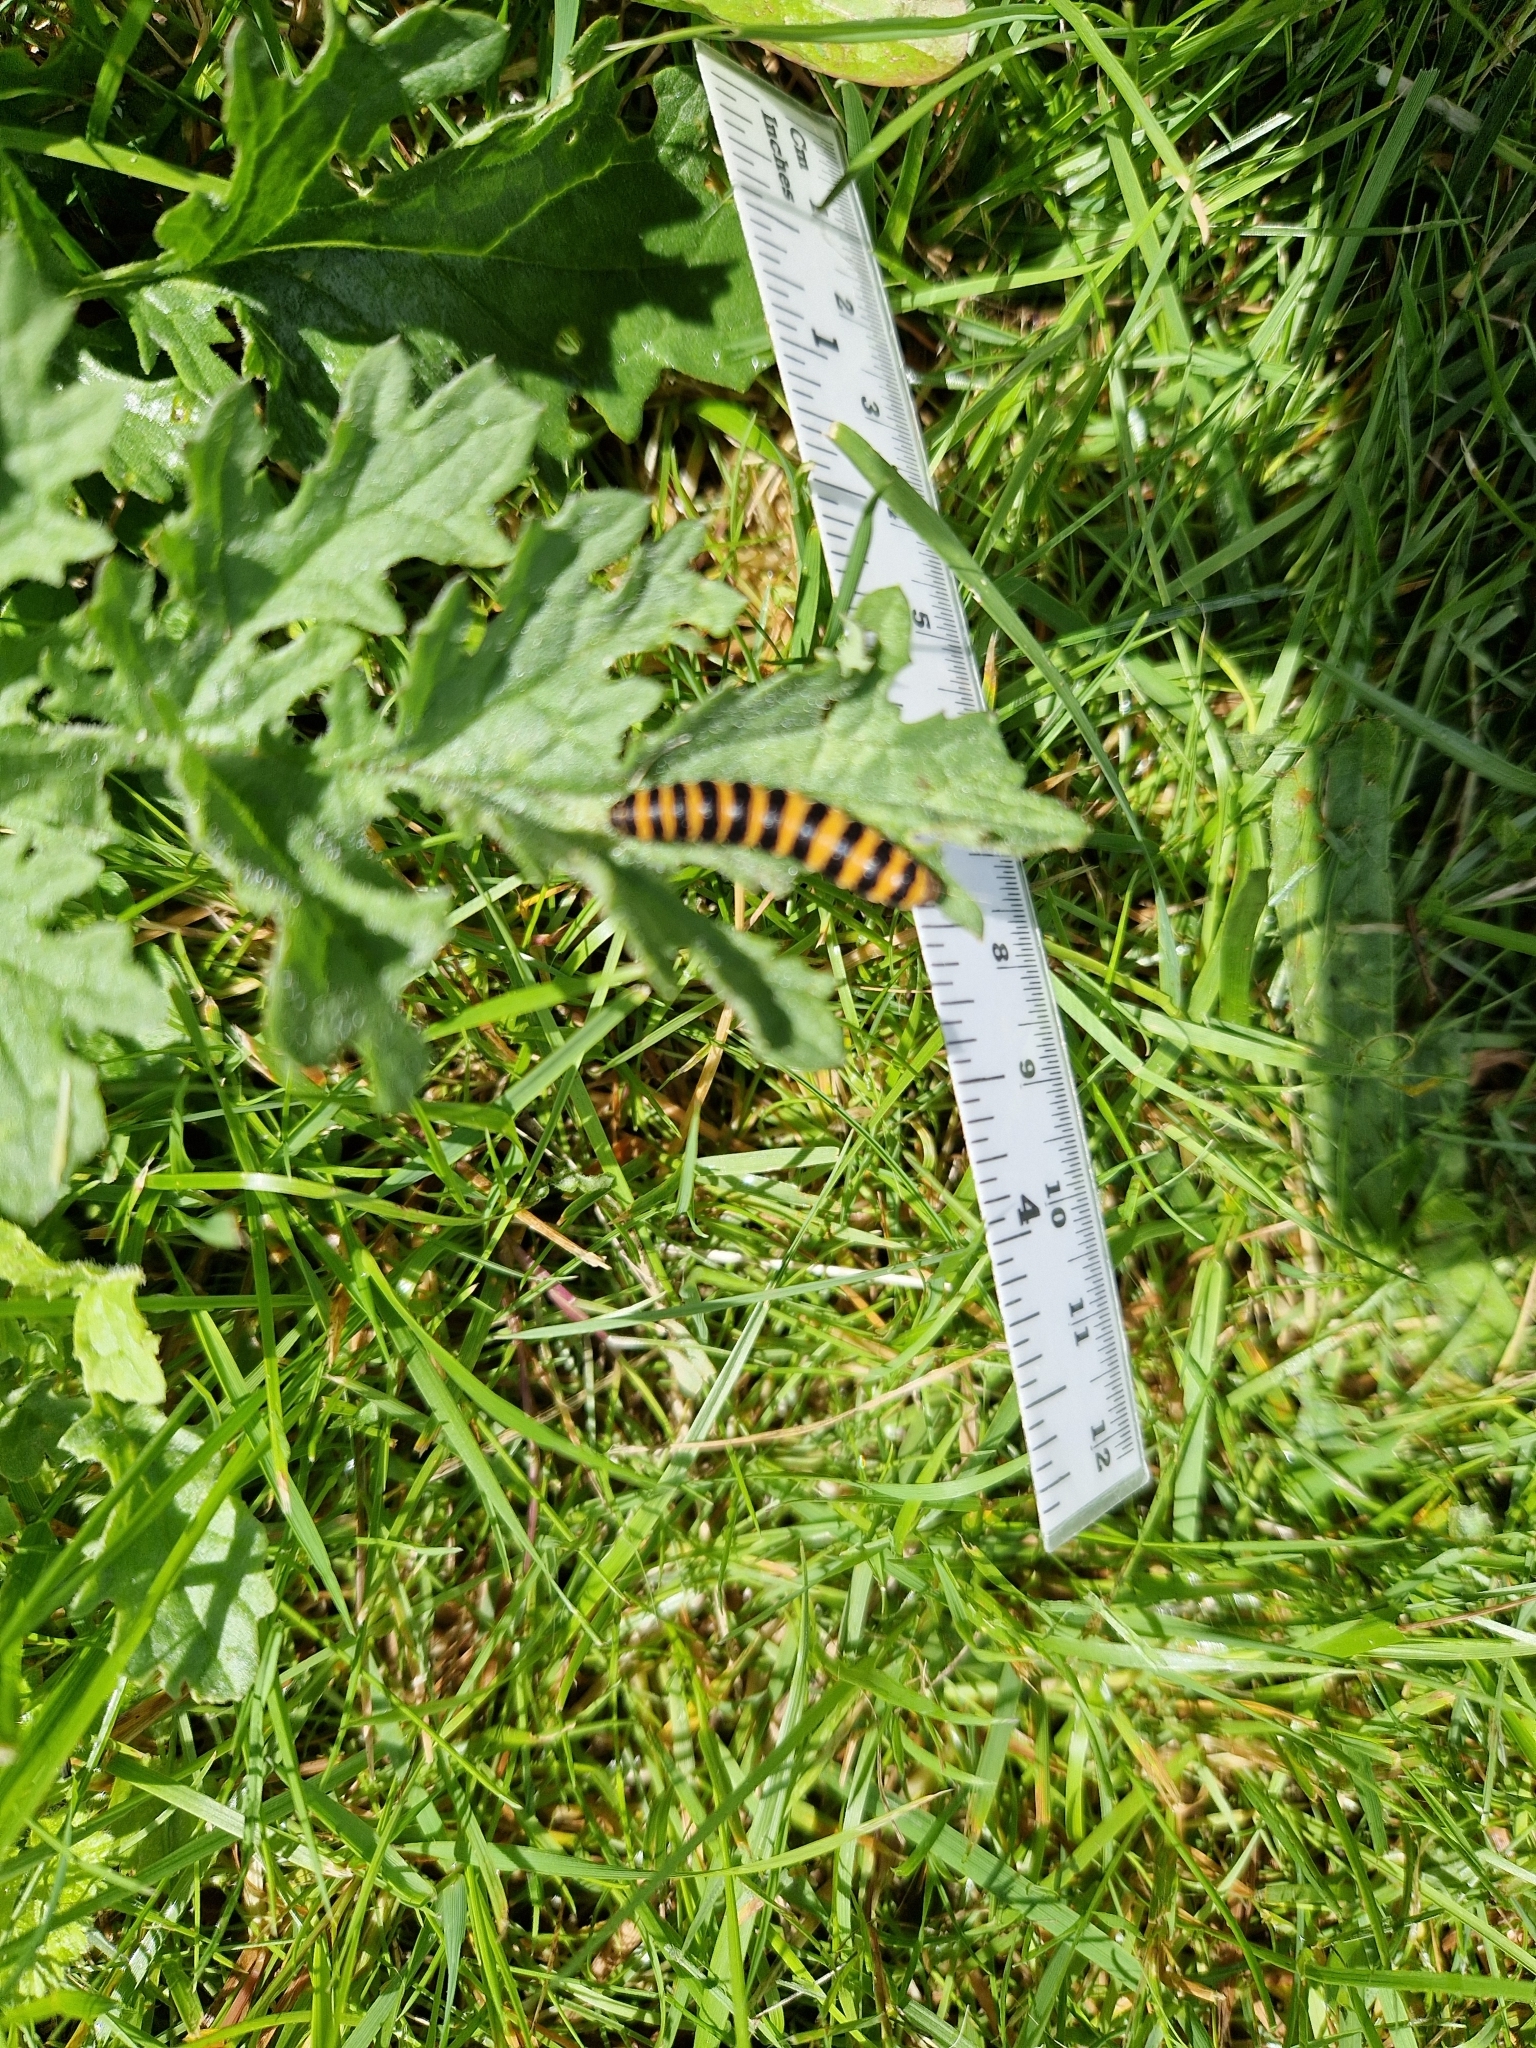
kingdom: Animalia
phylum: Arthropoda
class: Insecta
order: Lepidoptera
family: Erebidae
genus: Tyria
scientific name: Tyria jacobaeae
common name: Cinnabar
